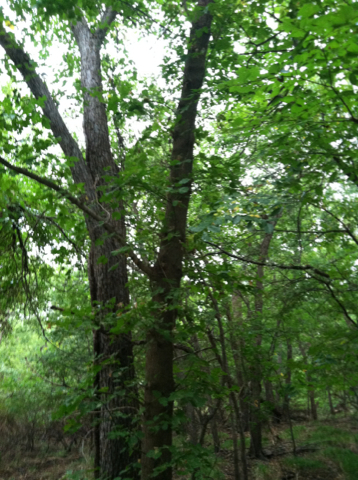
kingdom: Plantae
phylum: Tracheophyta
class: Magnoliopsida
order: Sapindales
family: Sapindaceae
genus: Acer
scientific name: Acer negundo
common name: Ashleaf maple
